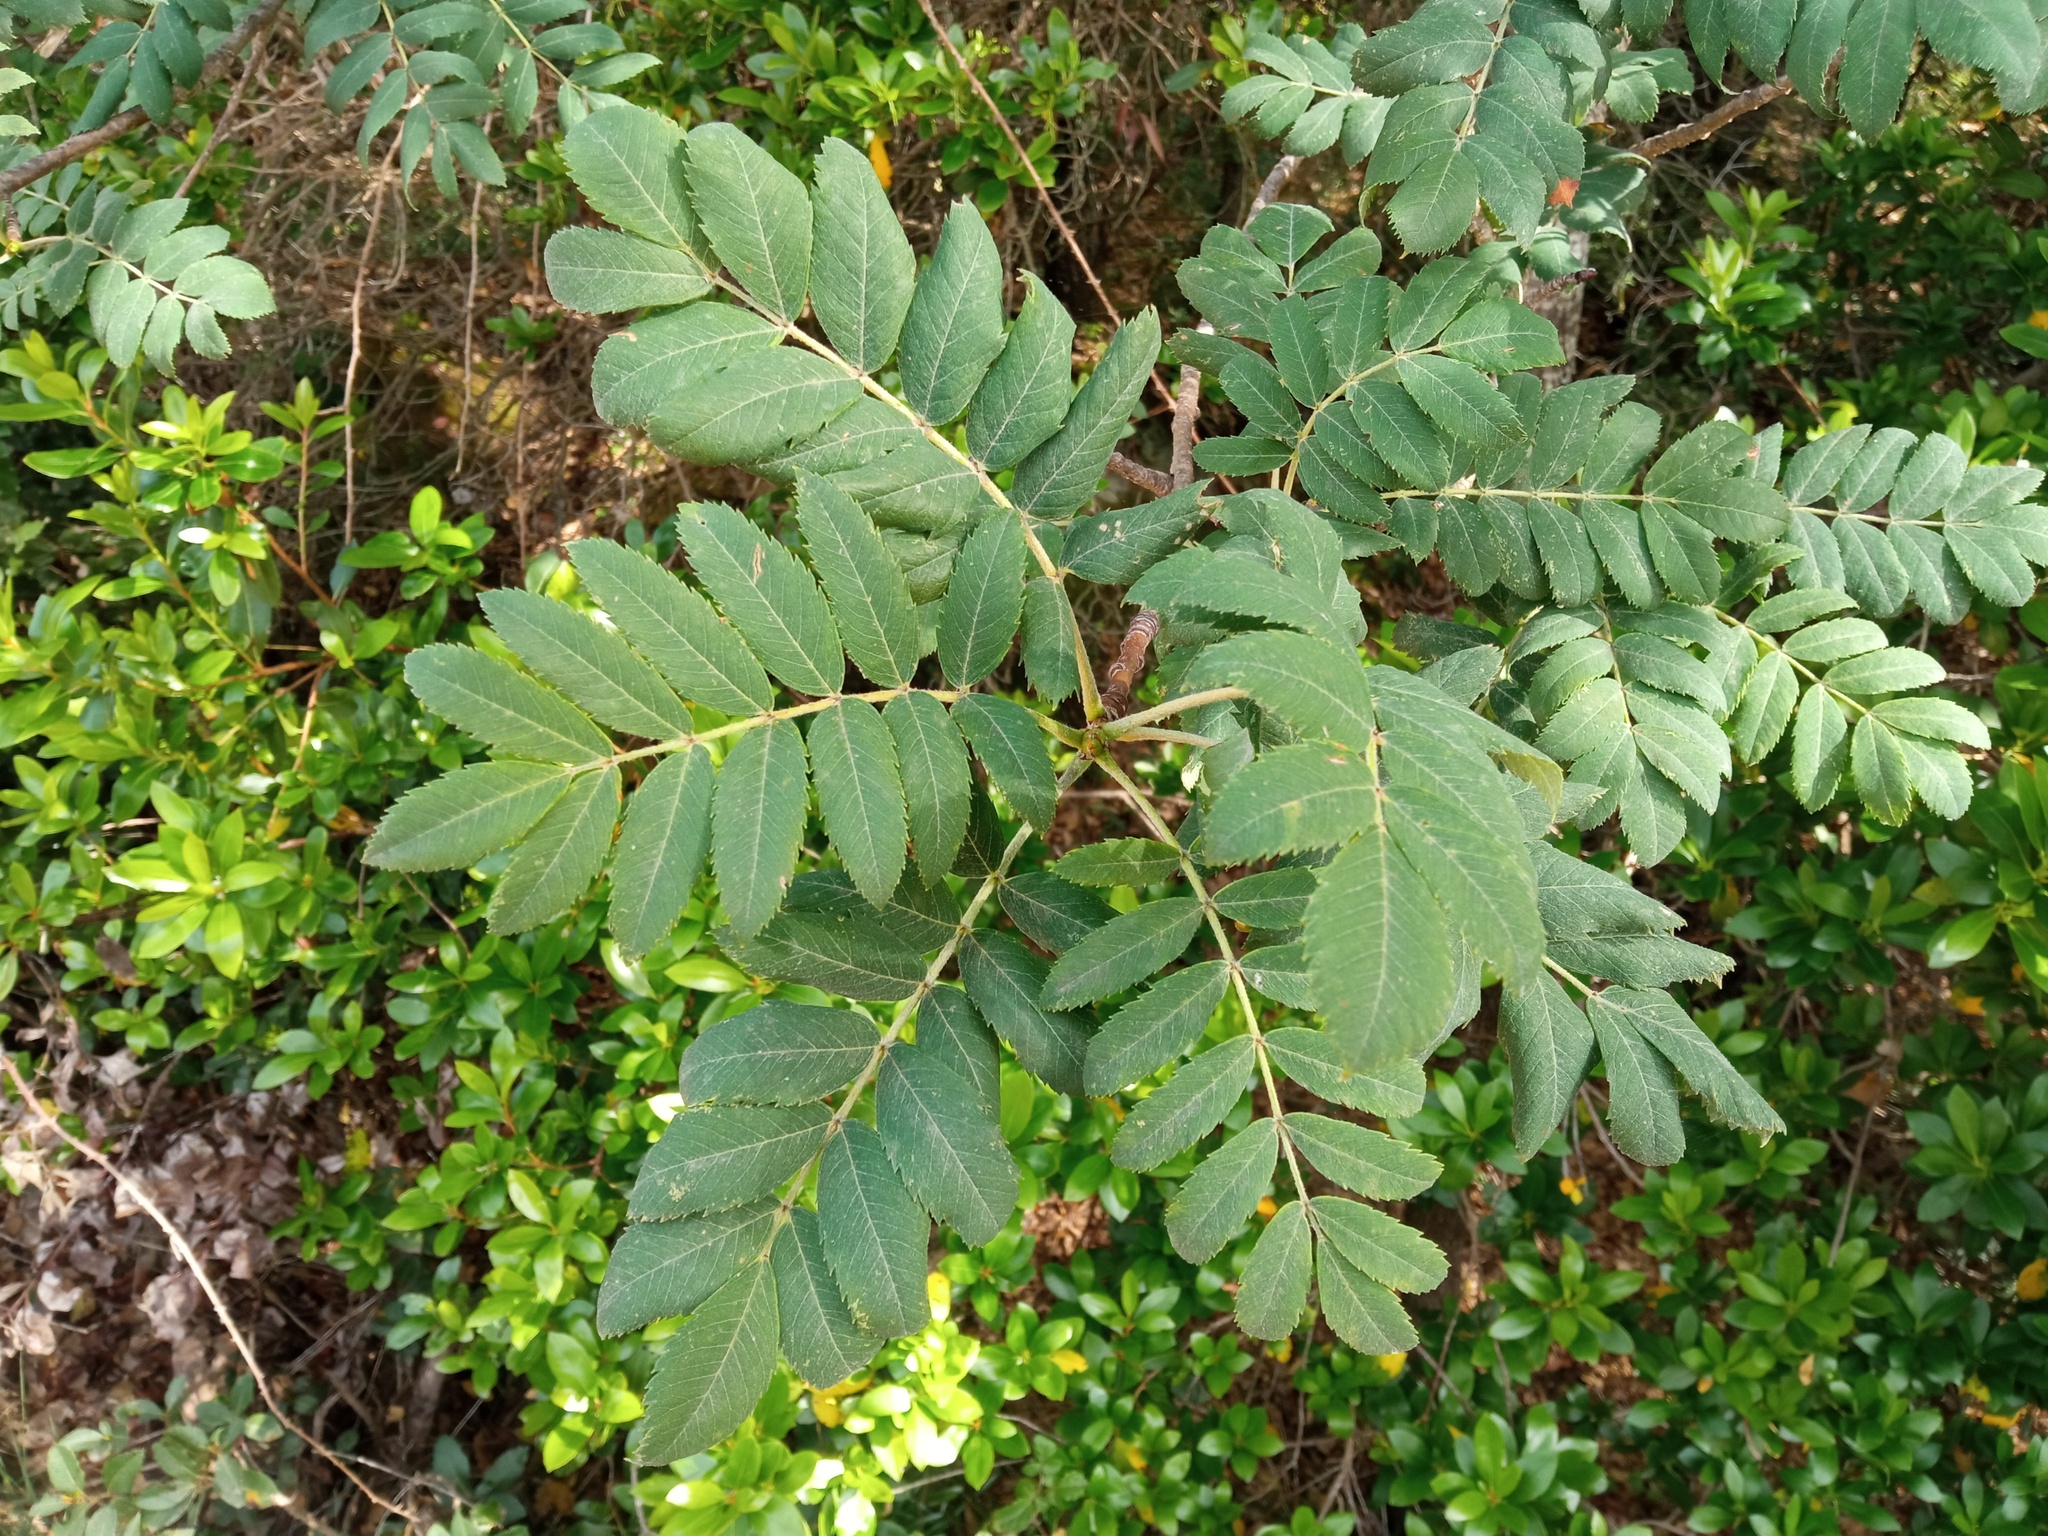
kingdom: Plantae
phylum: Tracheophyta
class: Magnoliopsida
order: Rosales
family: Rosaceae
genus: Cormus
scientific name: Cormus domestica
